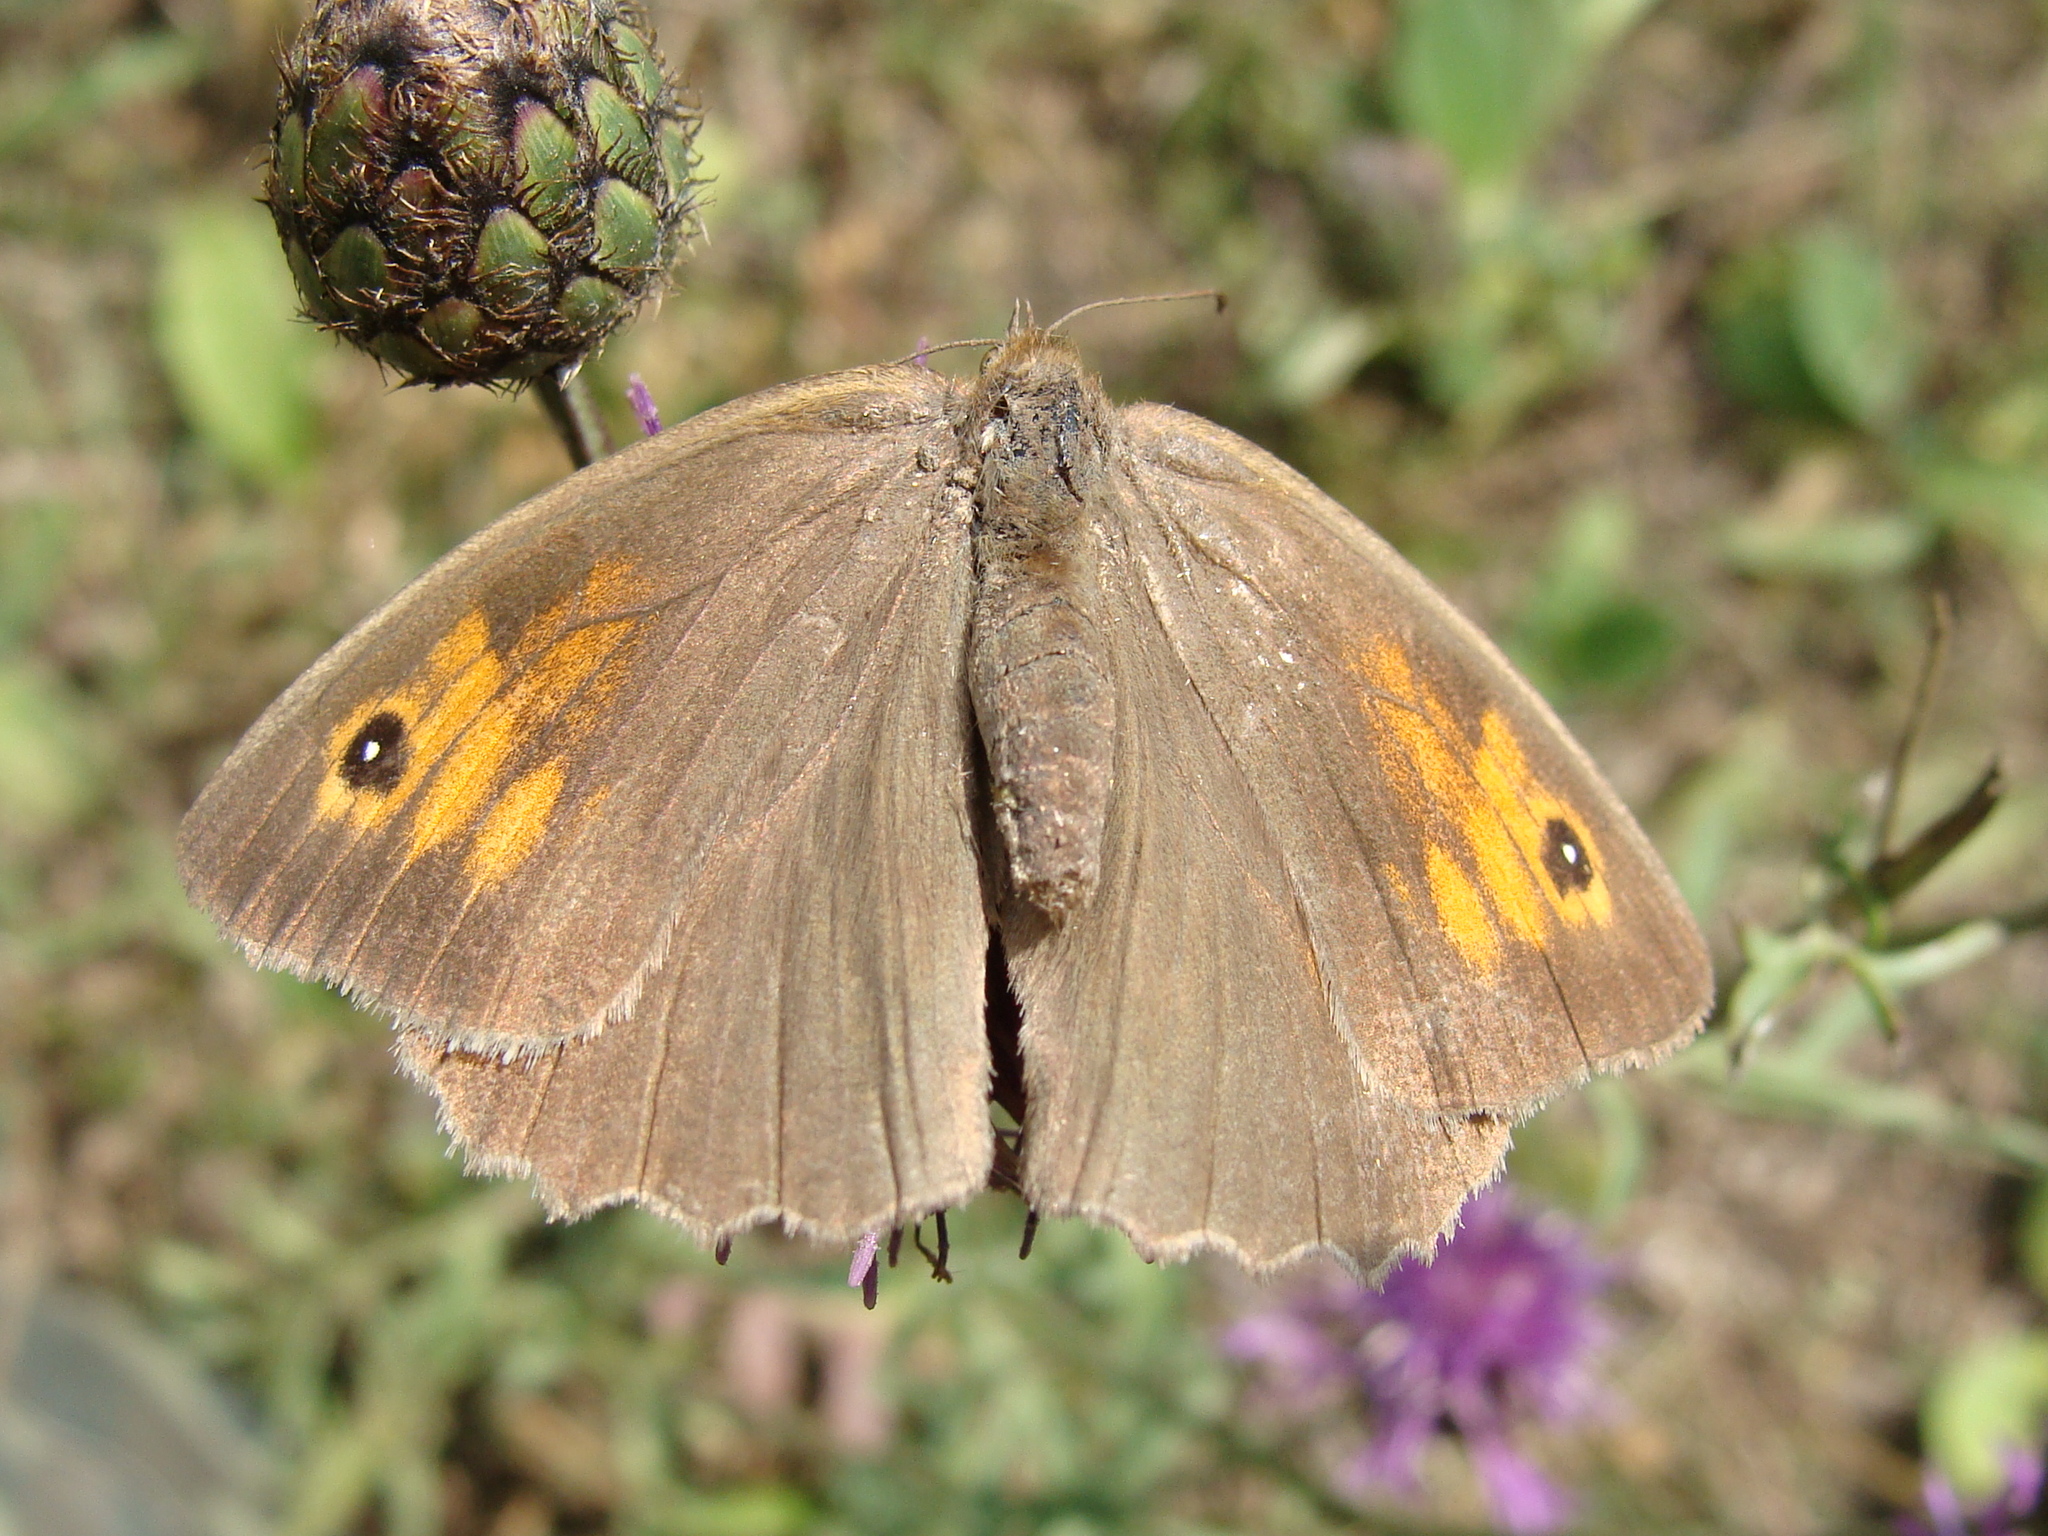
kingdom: Animalia
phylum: Arthropoda
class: Insecta
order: Lepidoptera
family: Nymphalidae
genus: Maniola
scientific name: Maniola jurtina
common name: Meadow brown
